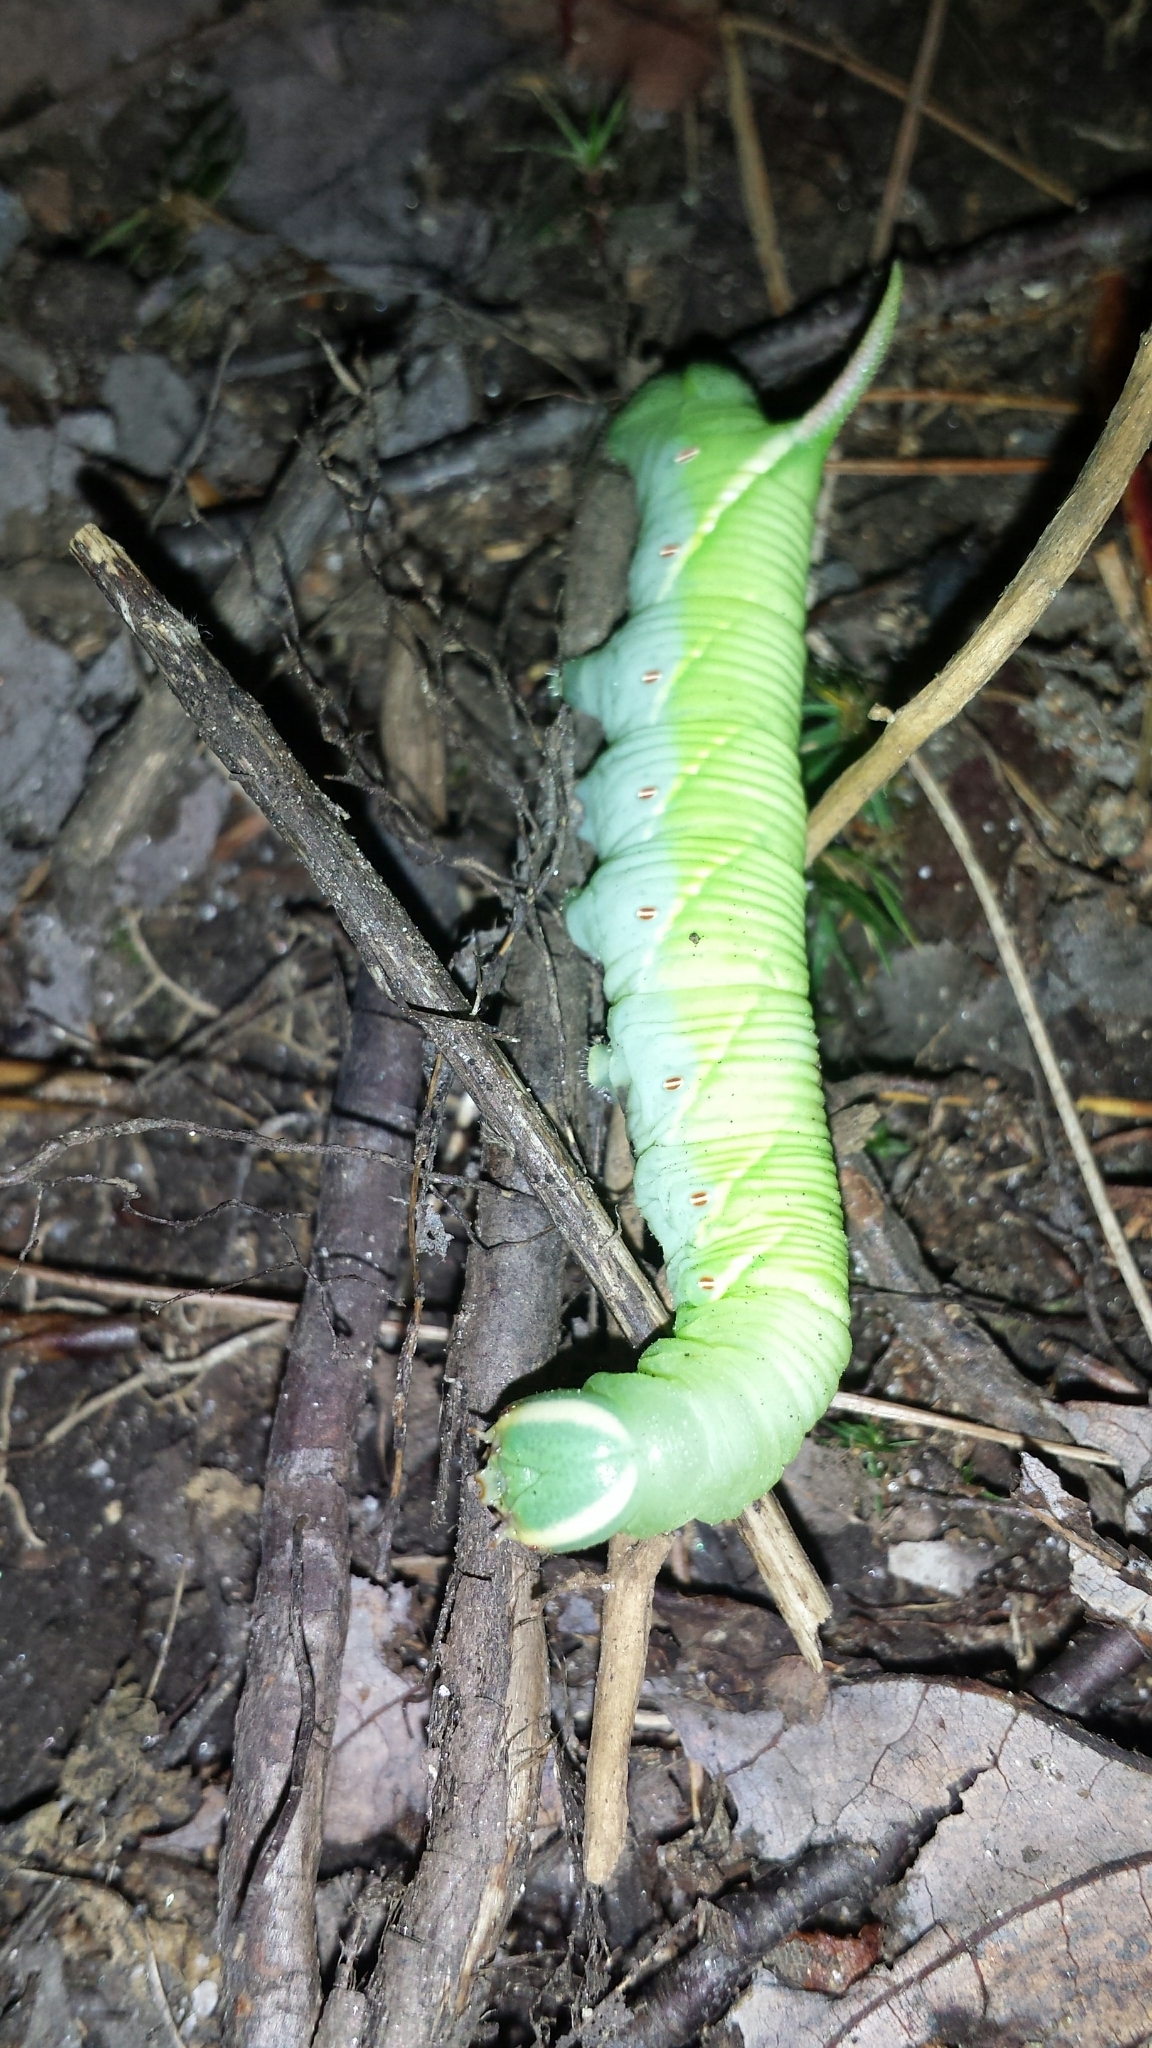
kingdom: Animalia
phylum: Arthropoda
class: Insecta
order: Lepidoptera
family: Sphingidae
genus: Ceratomia
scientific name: Ceratomia undulosa
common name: Waved sphinx
